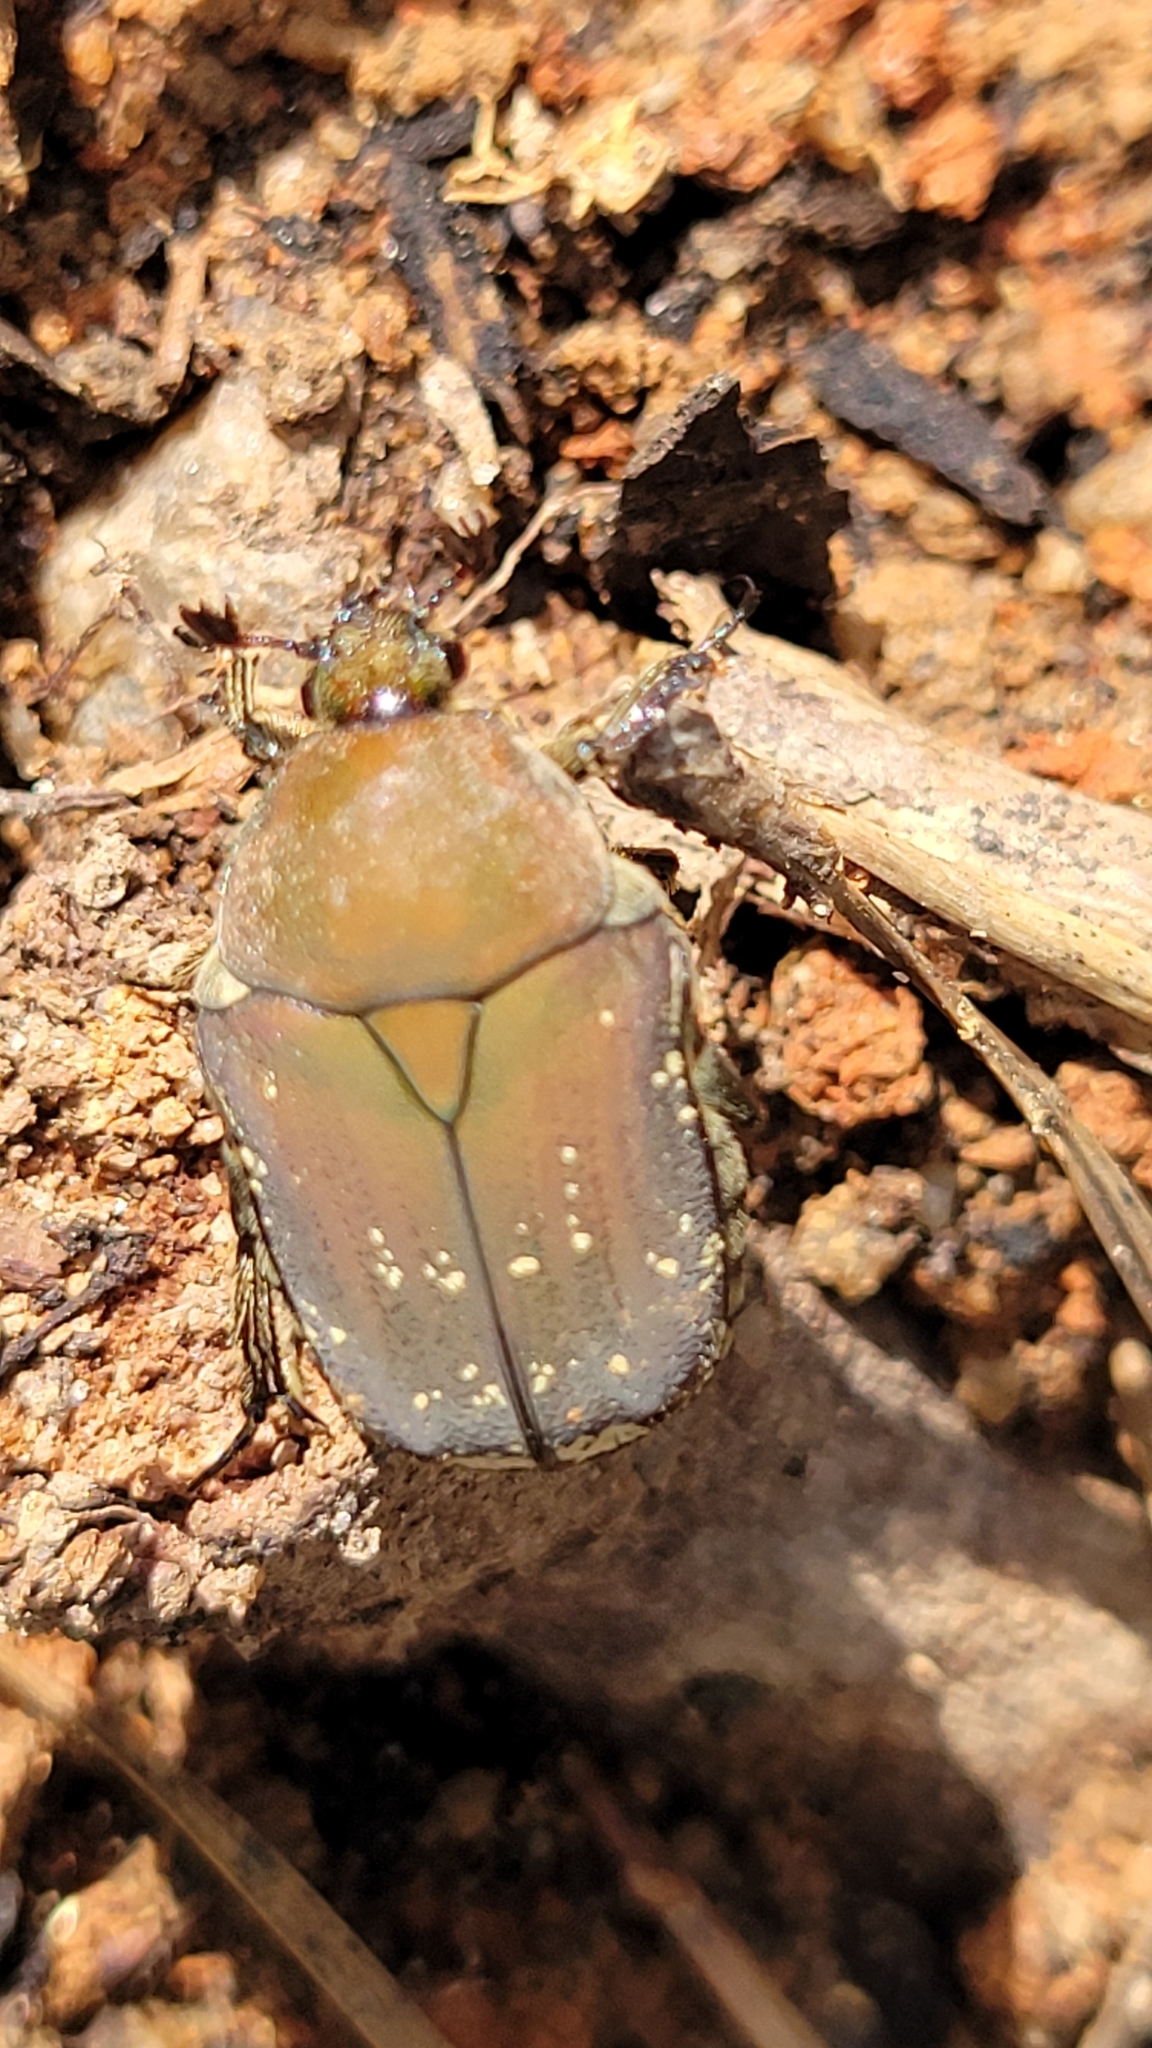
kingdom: Animalia
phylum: Arthropoda
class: Insecta
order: Coleoptera
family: Scarabaeidae
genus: Euphoria
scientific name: Euphoria herbacea
